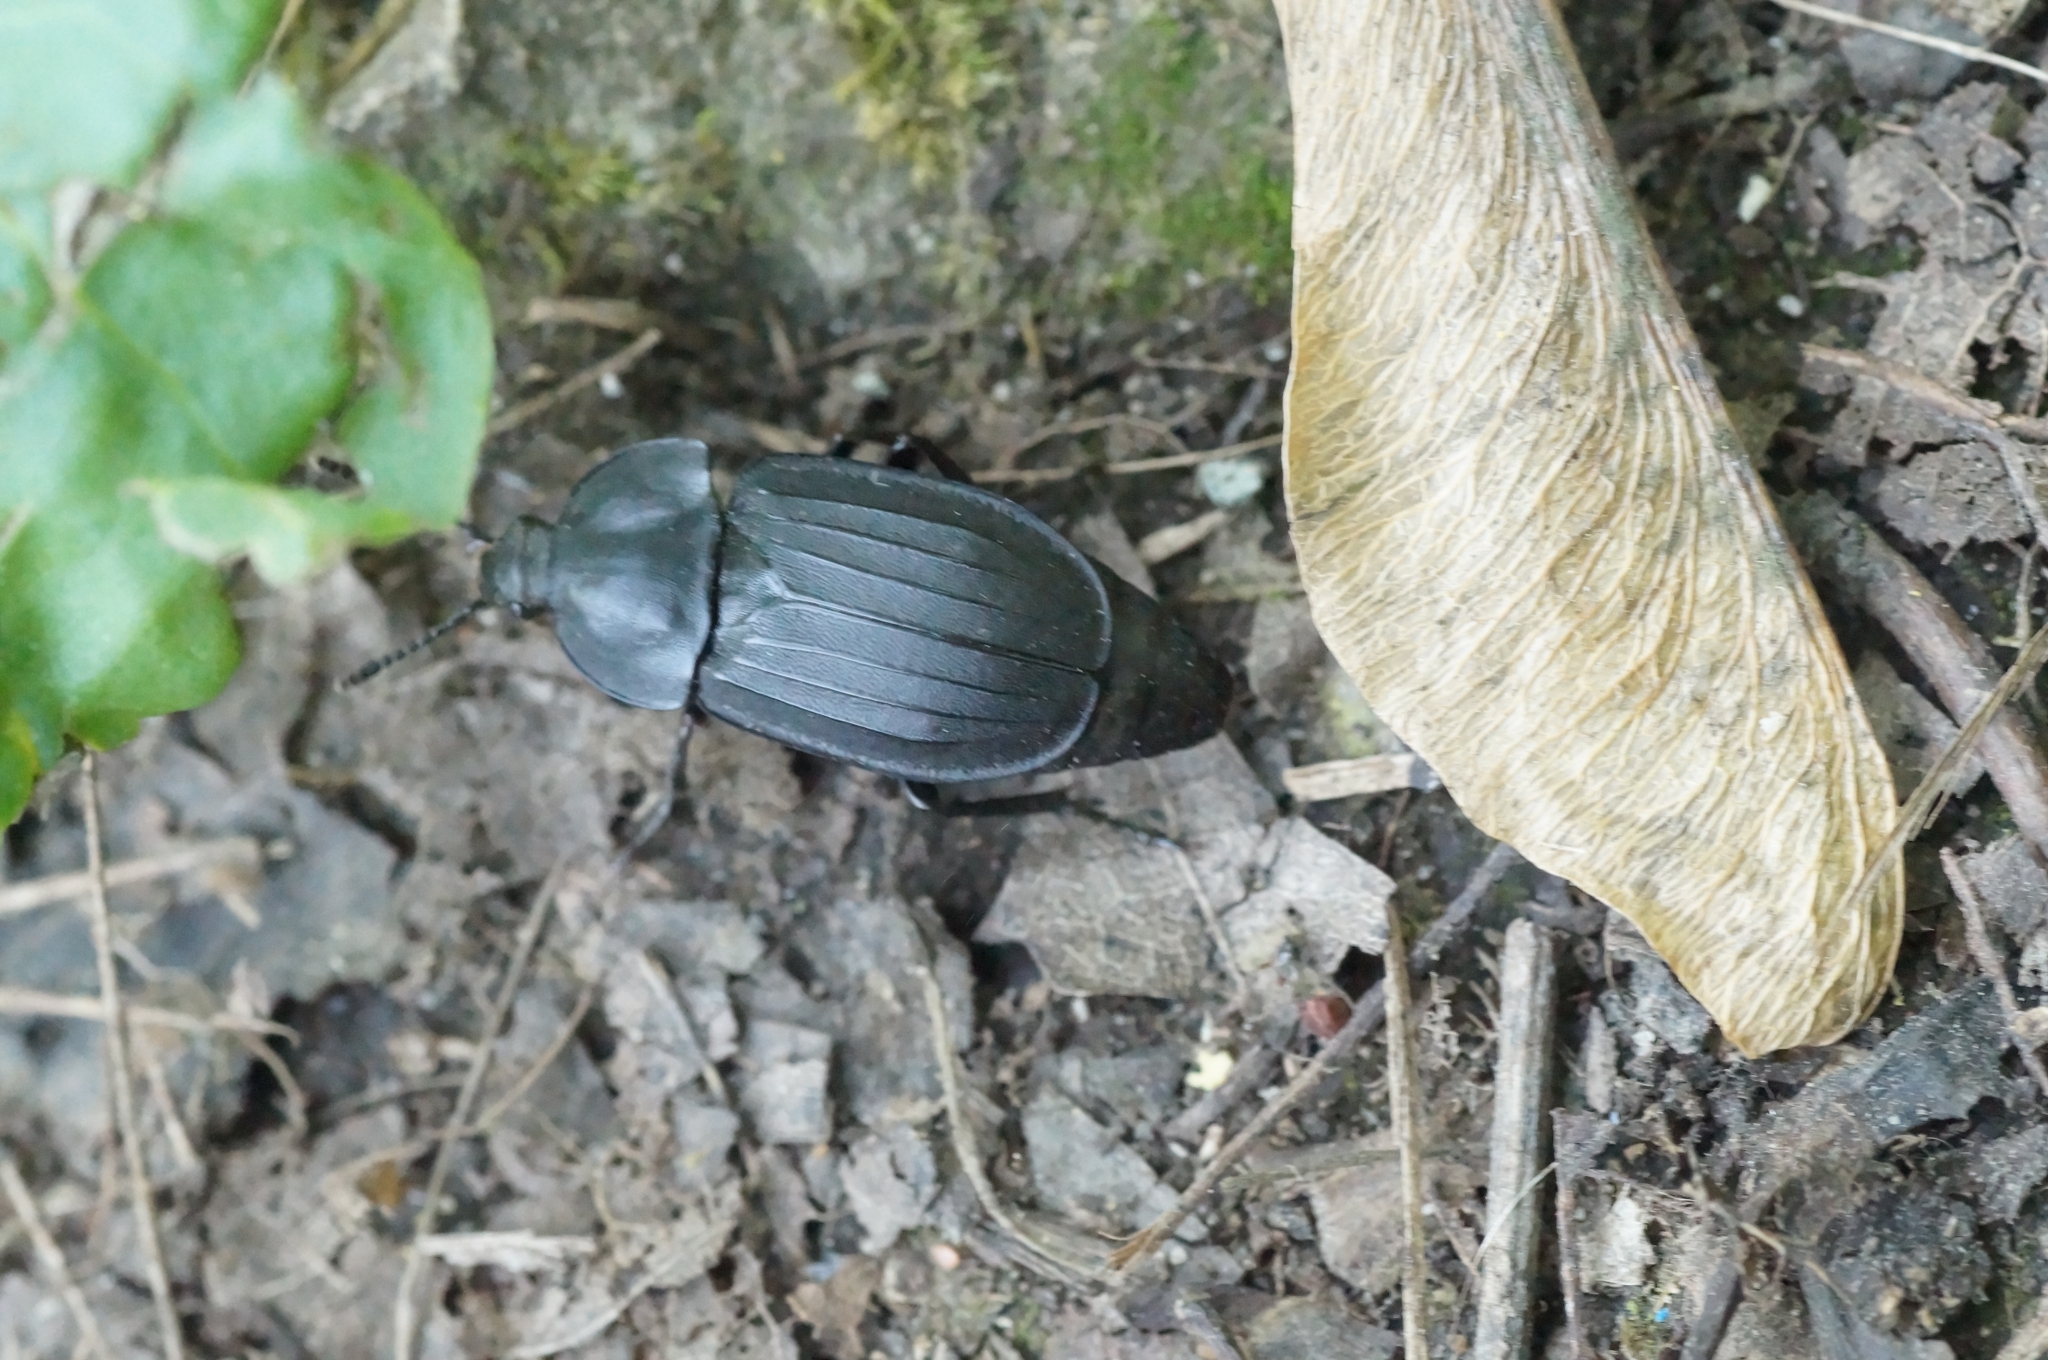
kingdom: Animalia
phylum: Arthropoda
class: Insecta
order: Coleoptera
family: Staphylinidae
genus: Silpha
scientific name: Silpha tristis
